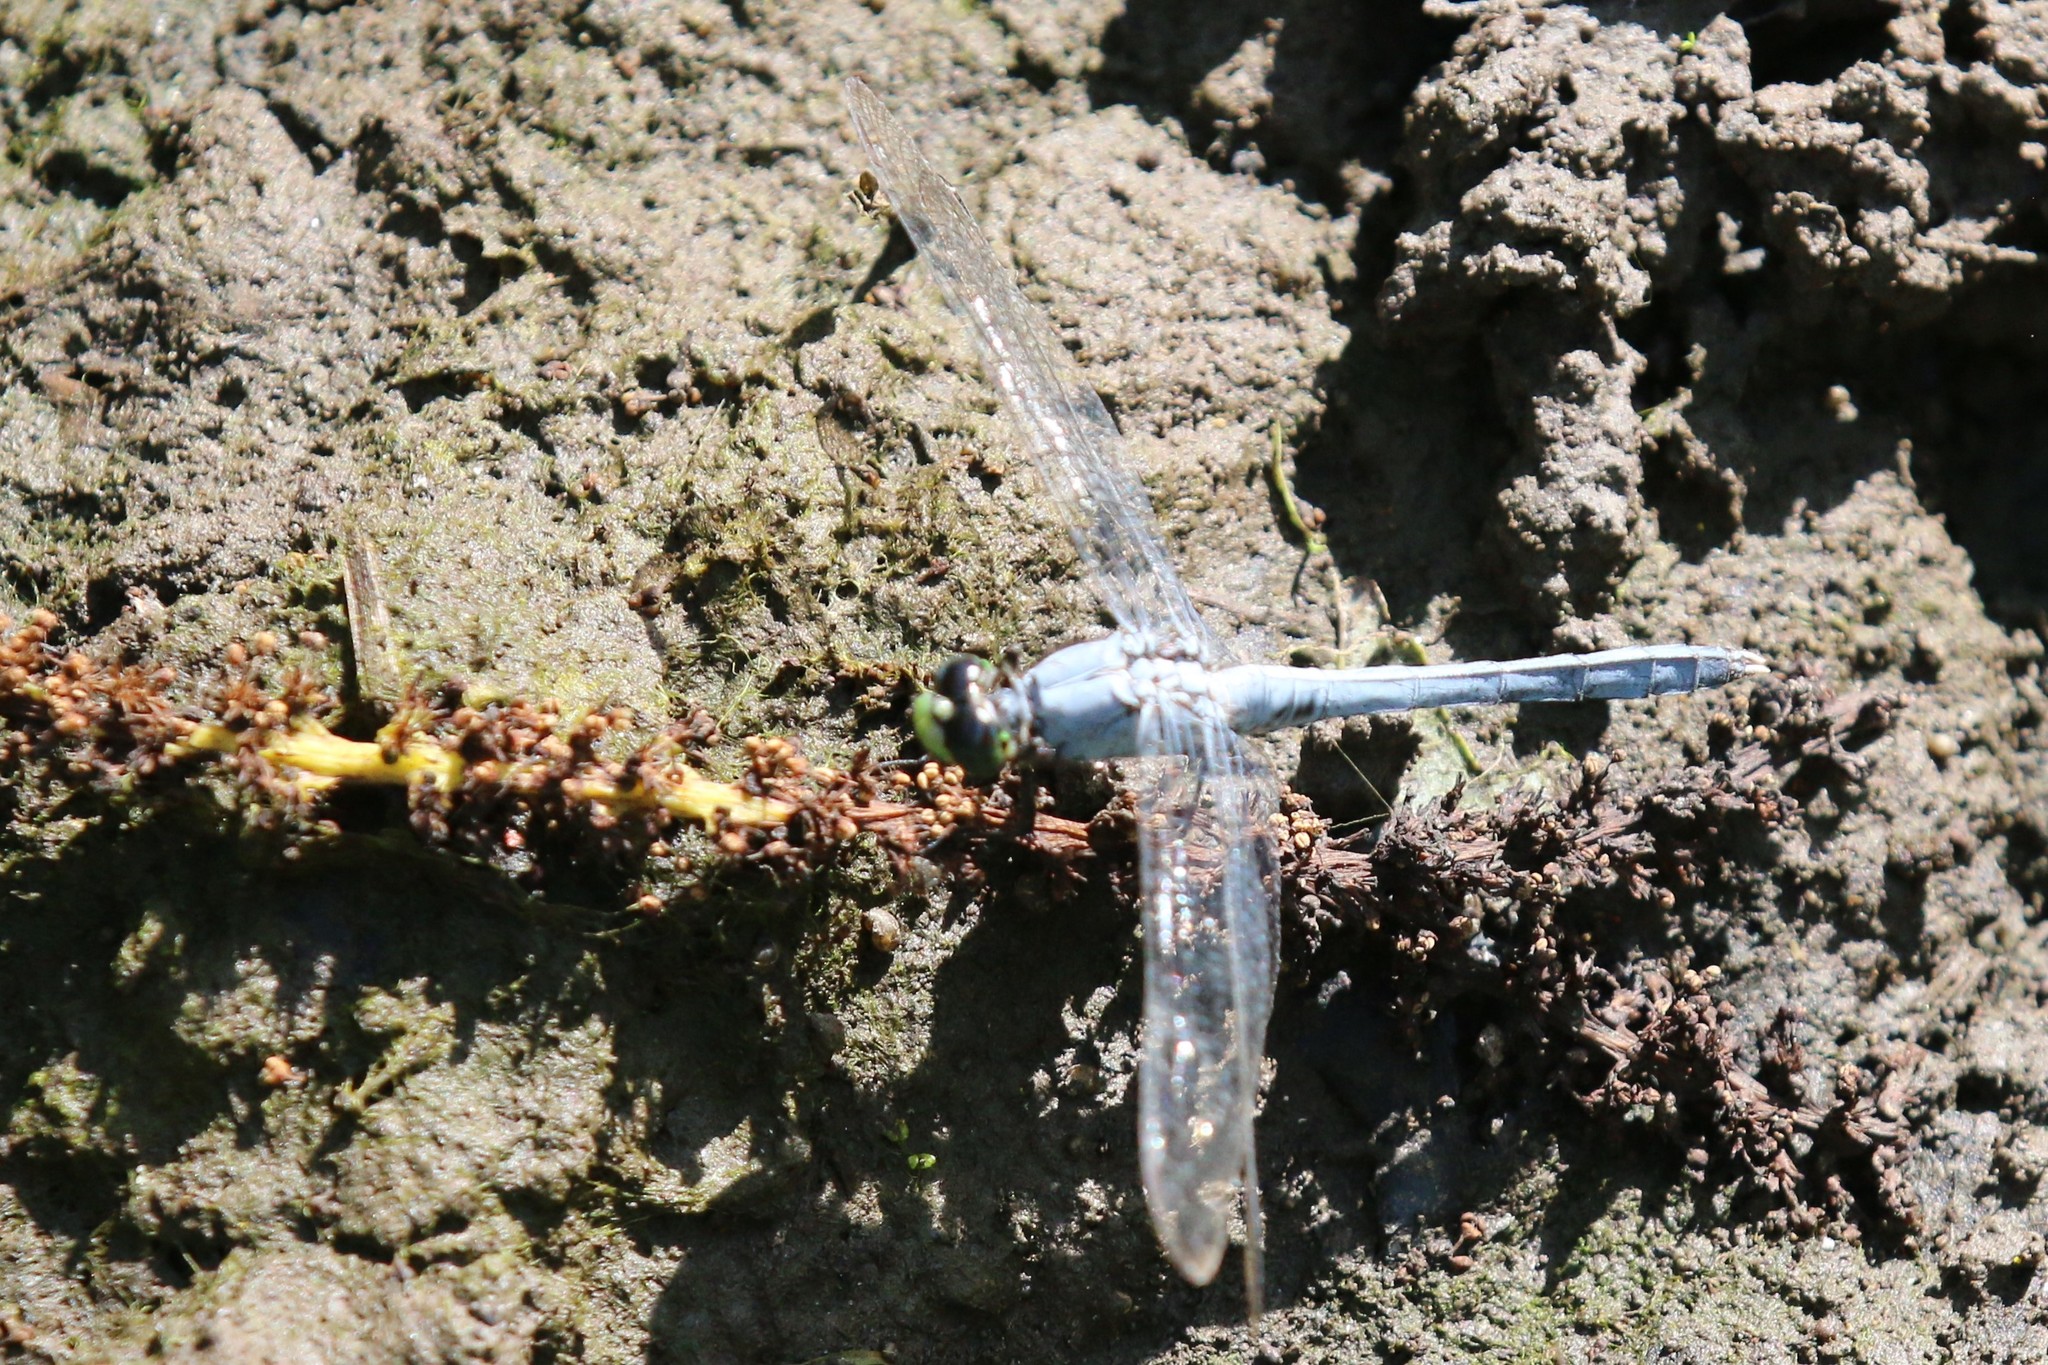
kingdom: Animalia
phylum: Arthropoda
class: Insecta
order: Odonata
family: Libellulidae
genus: Erythemis
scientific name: Erythemis simplicicollis
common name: Eastern pondhawk
